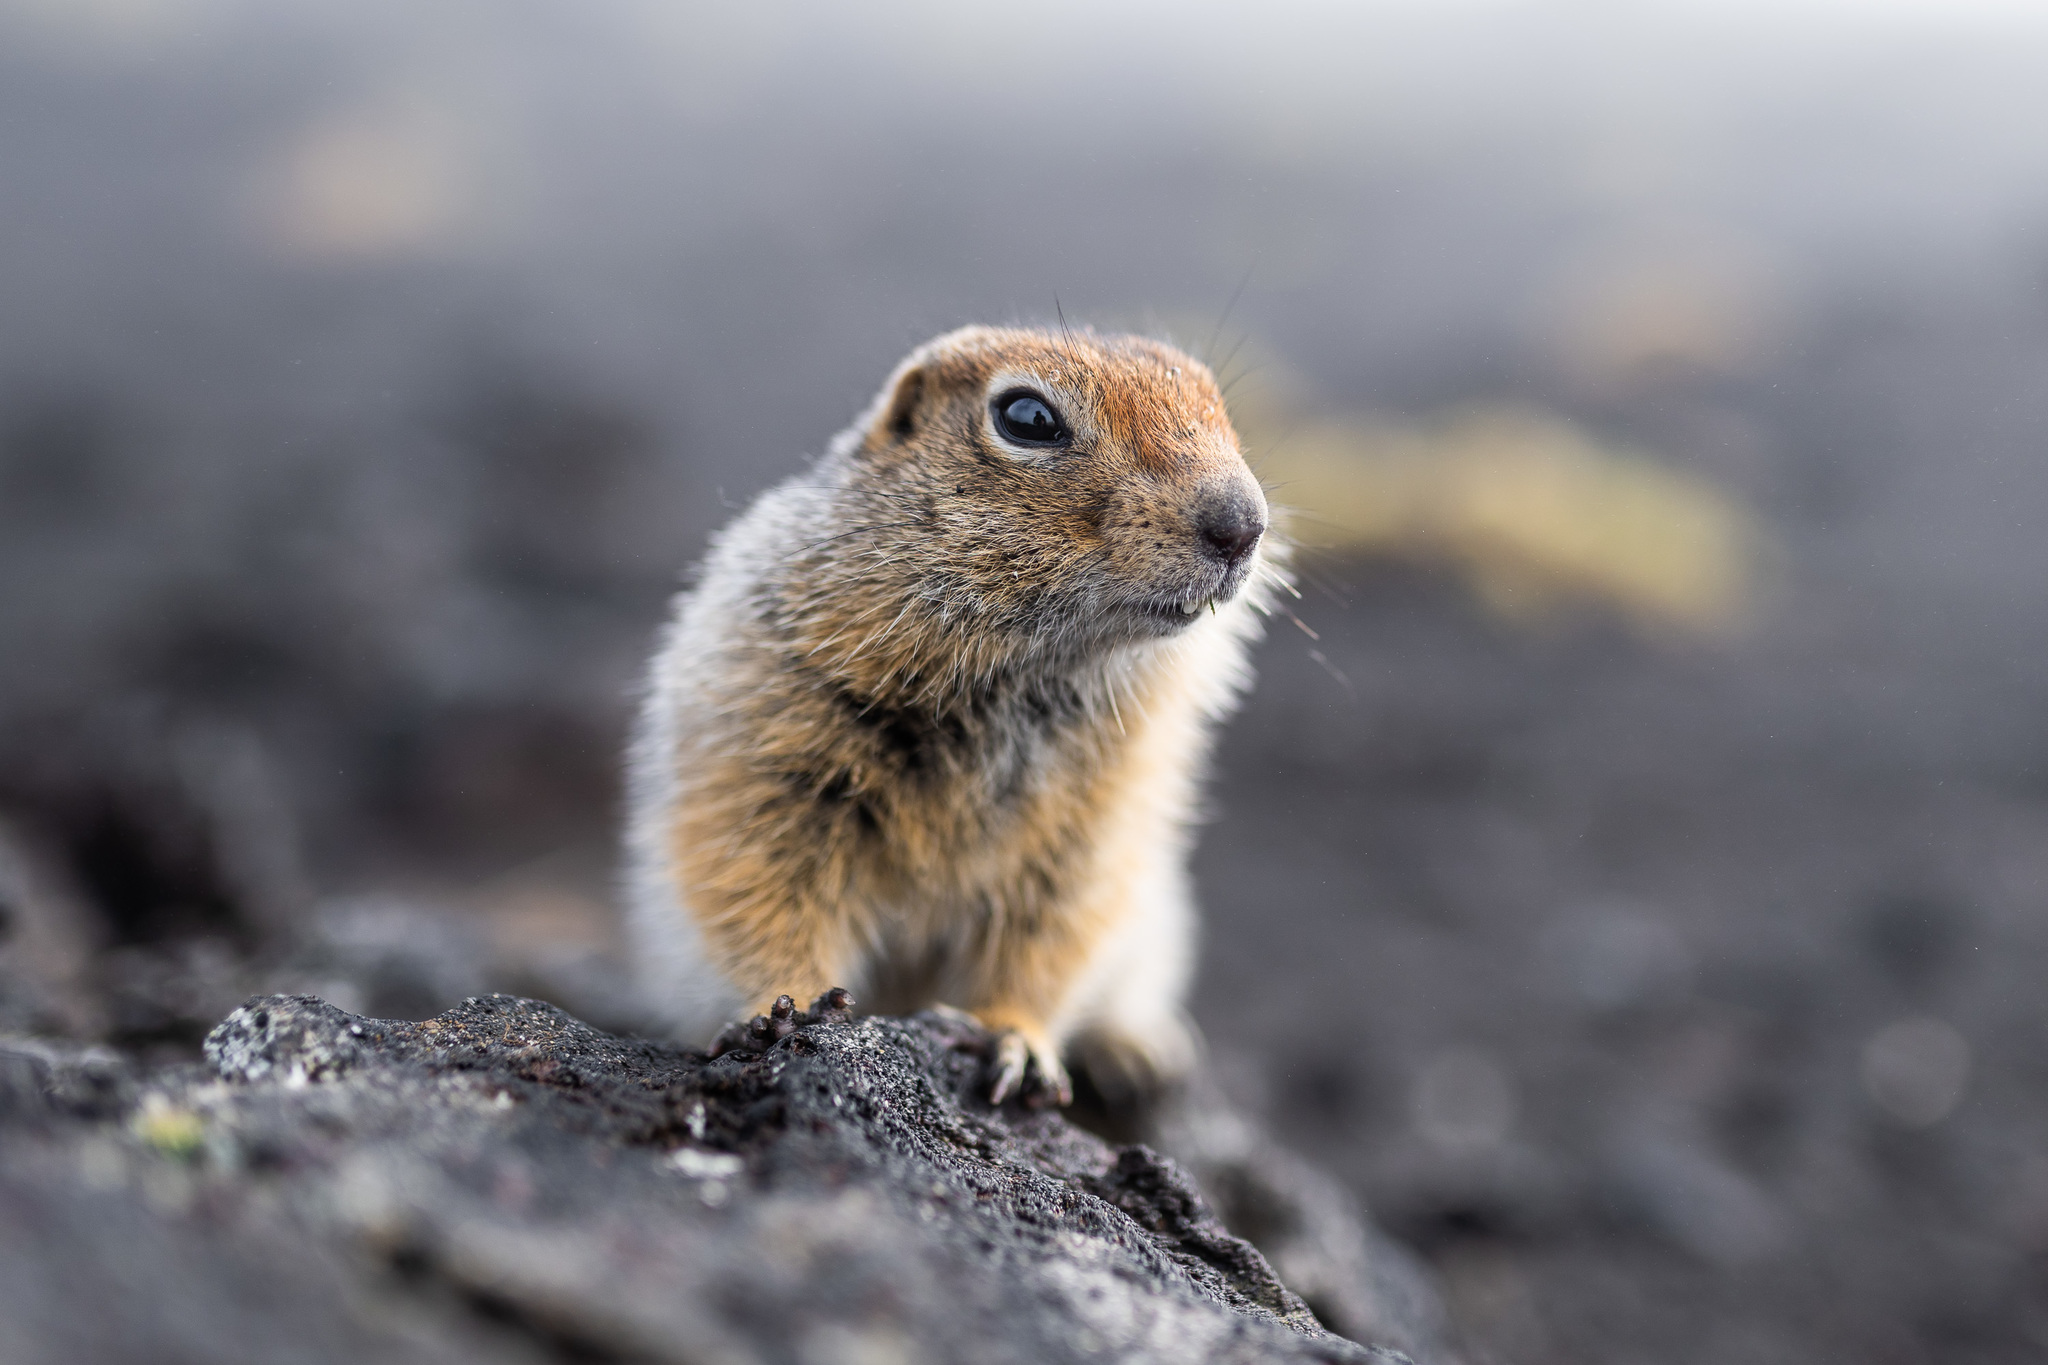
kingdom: Animalia
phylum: Chordata
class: Mammalia
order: Rodentia
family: Sciuridae
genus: Urocitellus
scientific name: Urocitellus parryii
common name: Arctic ground squirrel
